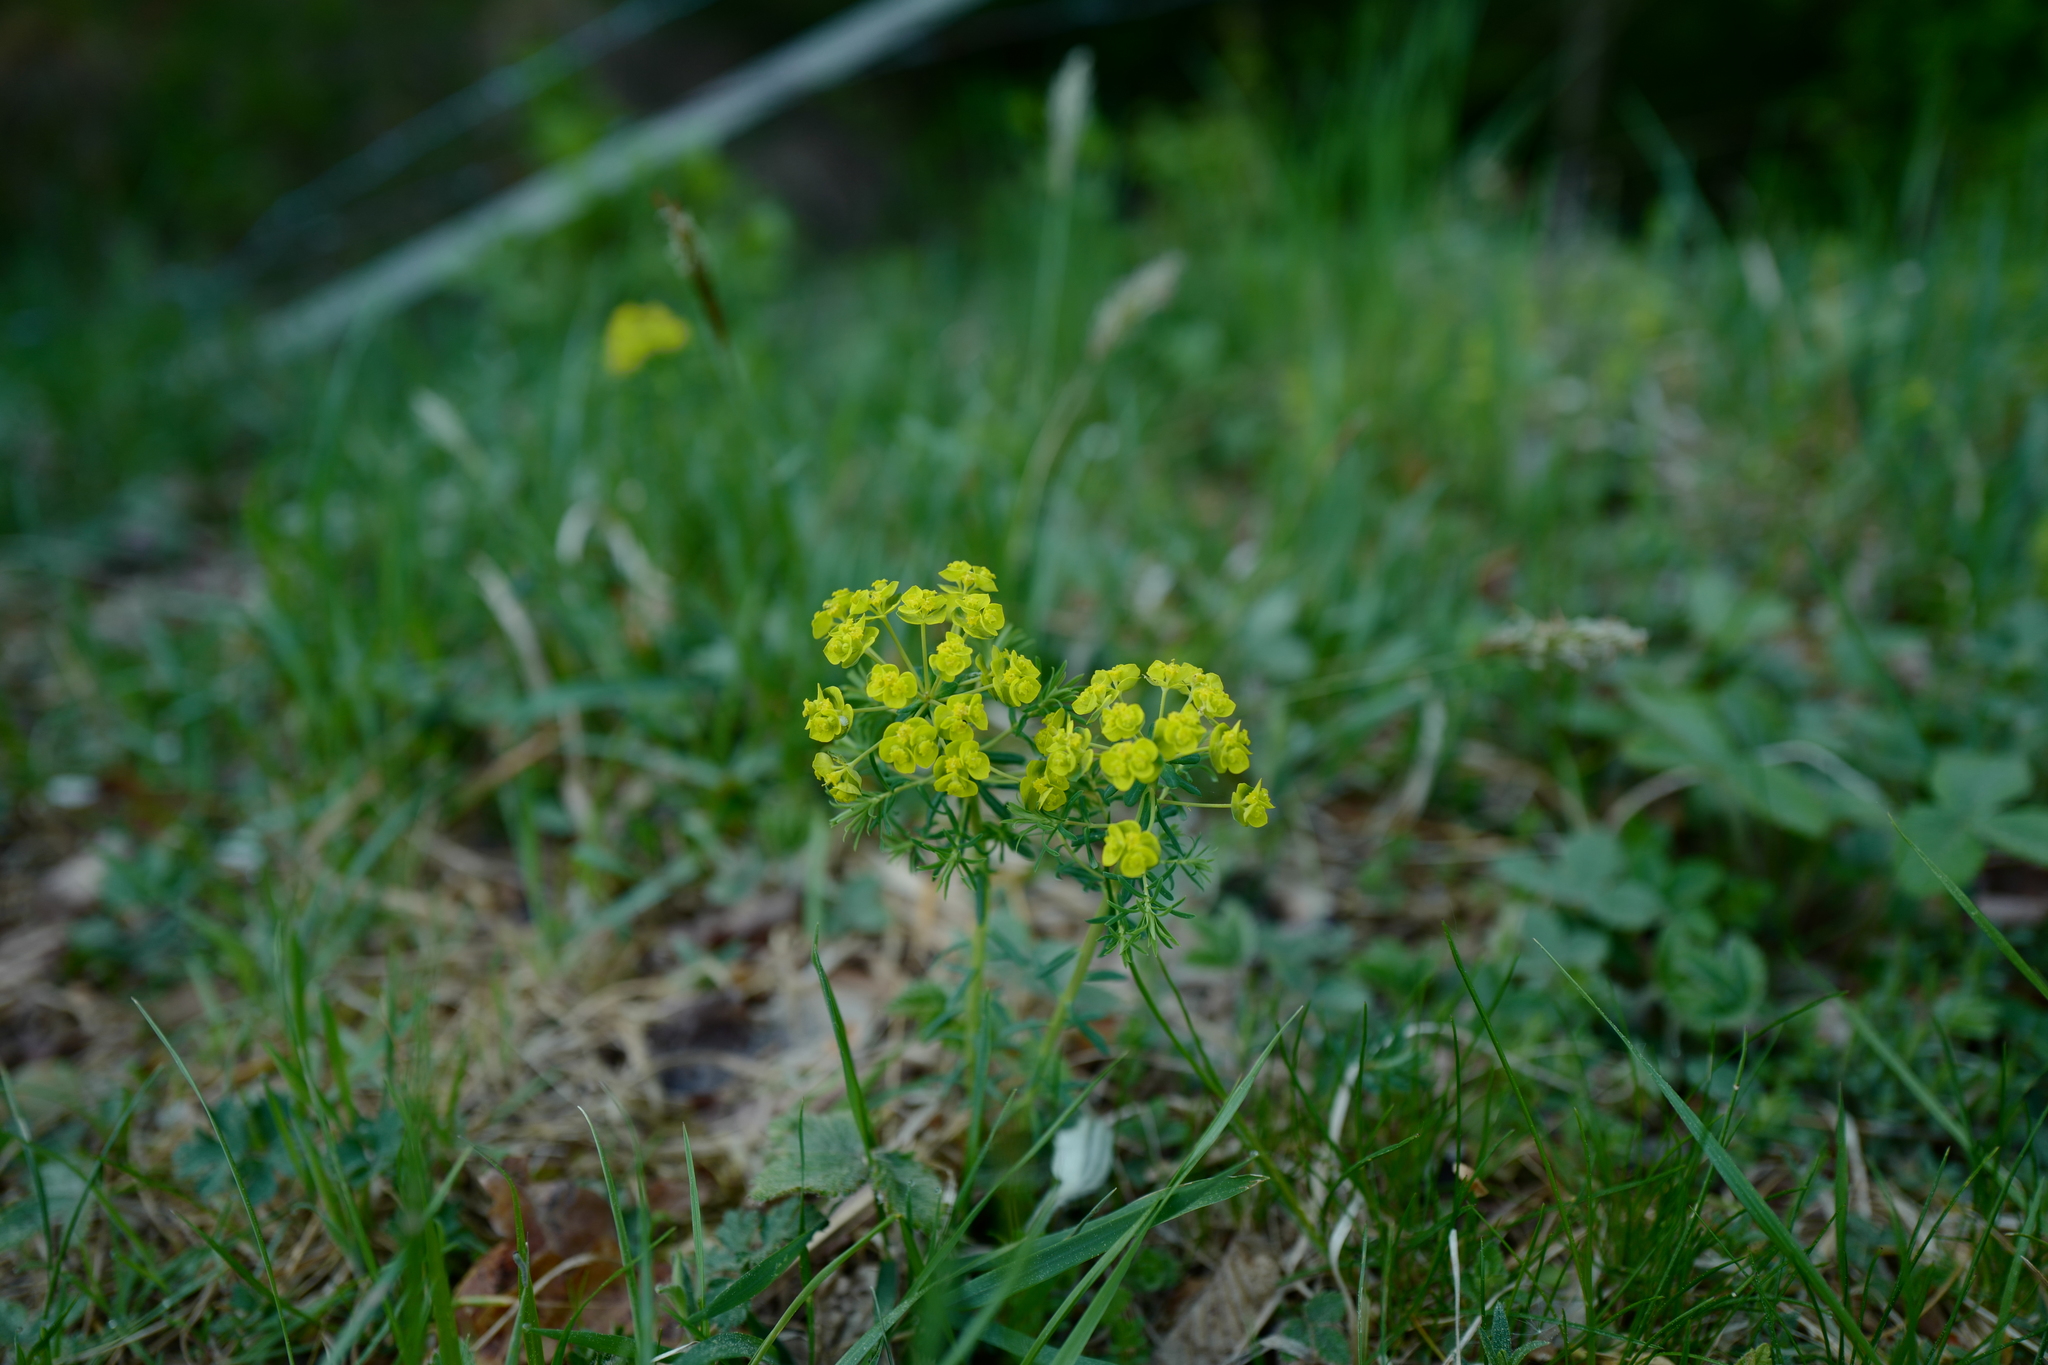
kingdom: Plantae
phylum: Tracheophyta
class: Magnoliopsida
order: Malpighiales
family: Euphorbiaceae
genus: Euphorbia
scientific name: Euphorbia cyparissias
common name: Cypress spurge
